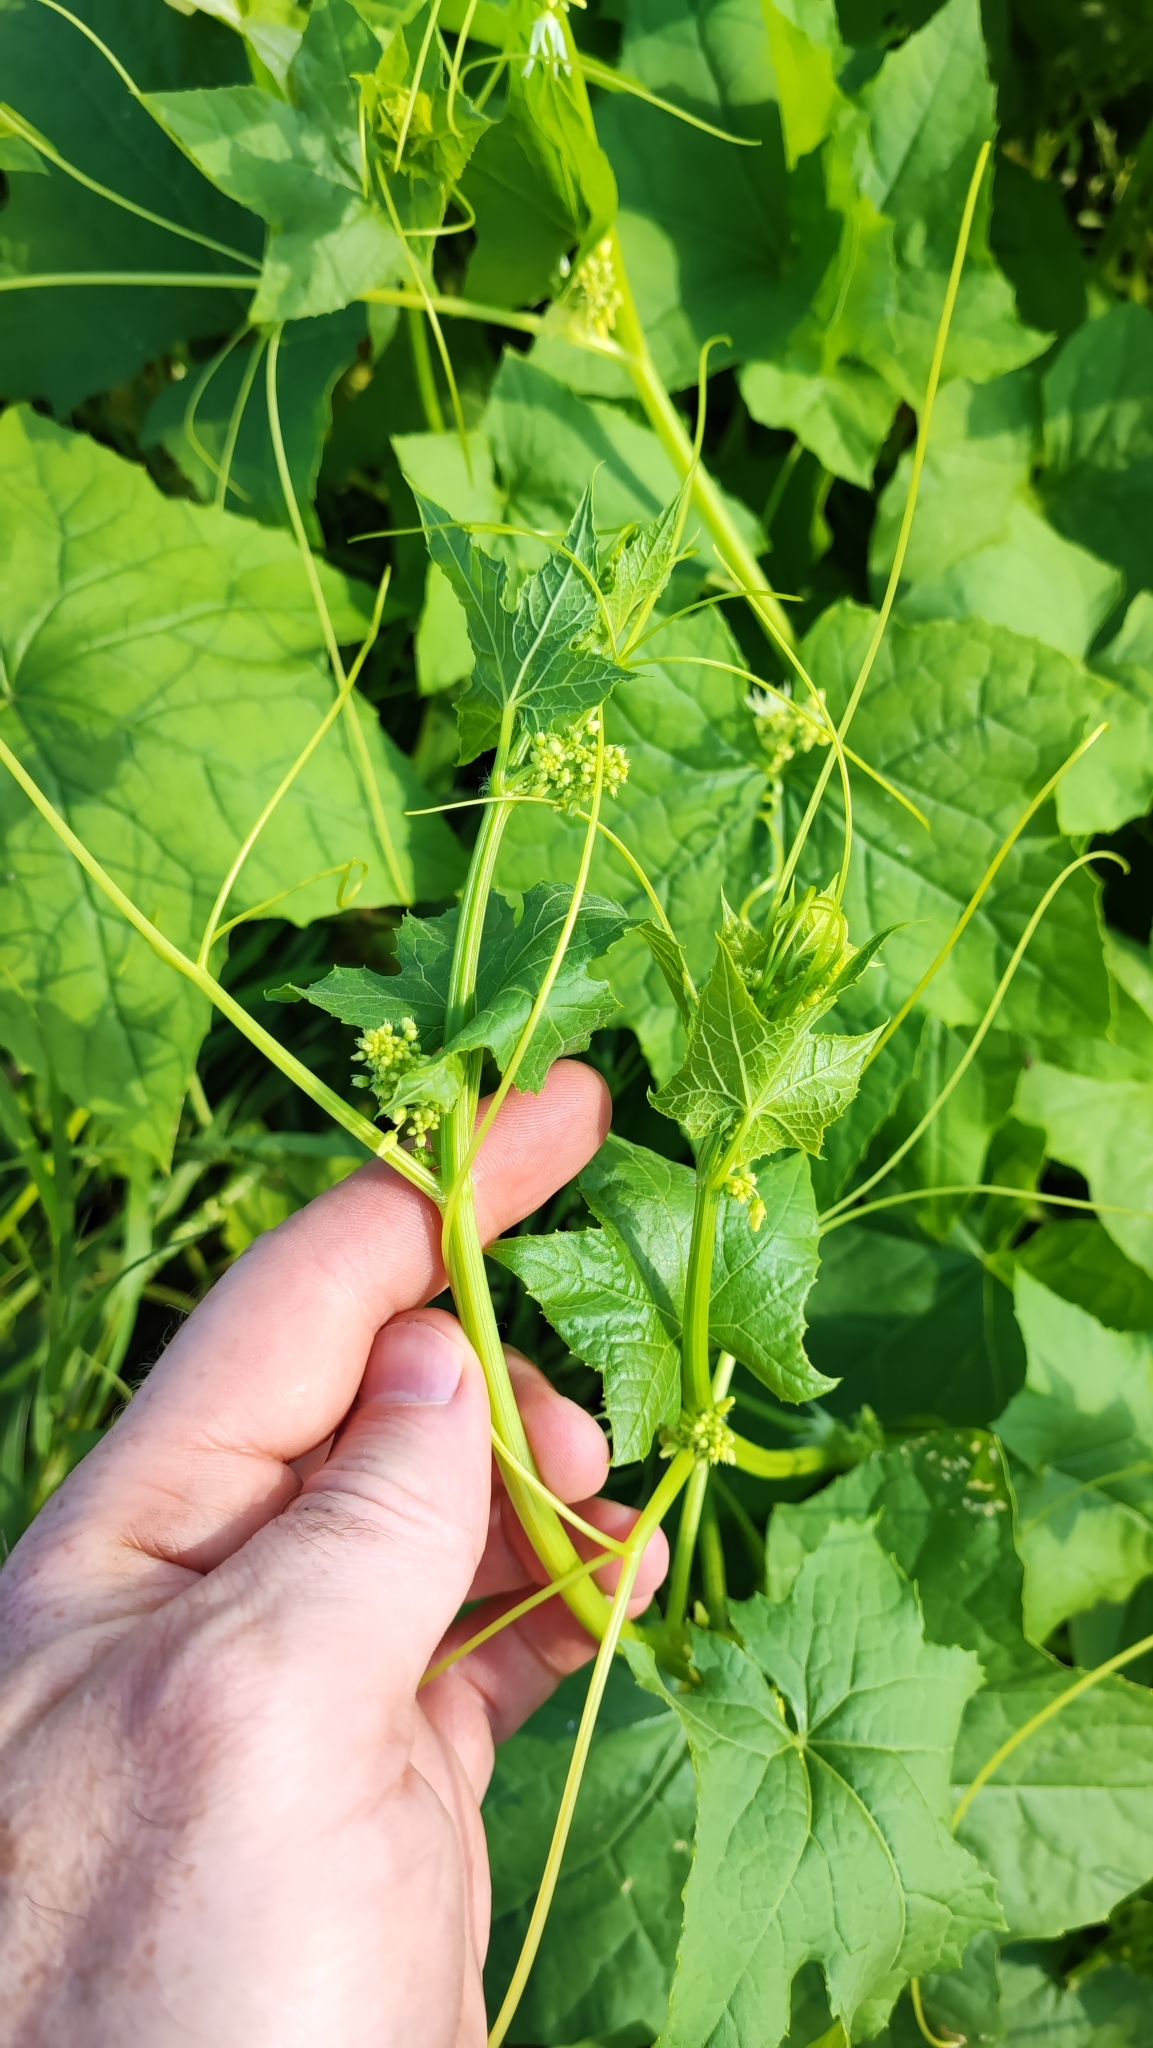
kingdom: Plantae
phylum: Tracheophyta
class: Magnoliopsida
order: Cucurbitales
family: Cucurbitaceae
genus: Echinocystis
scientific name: Echinocystis lobata
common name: Wild cucumber
